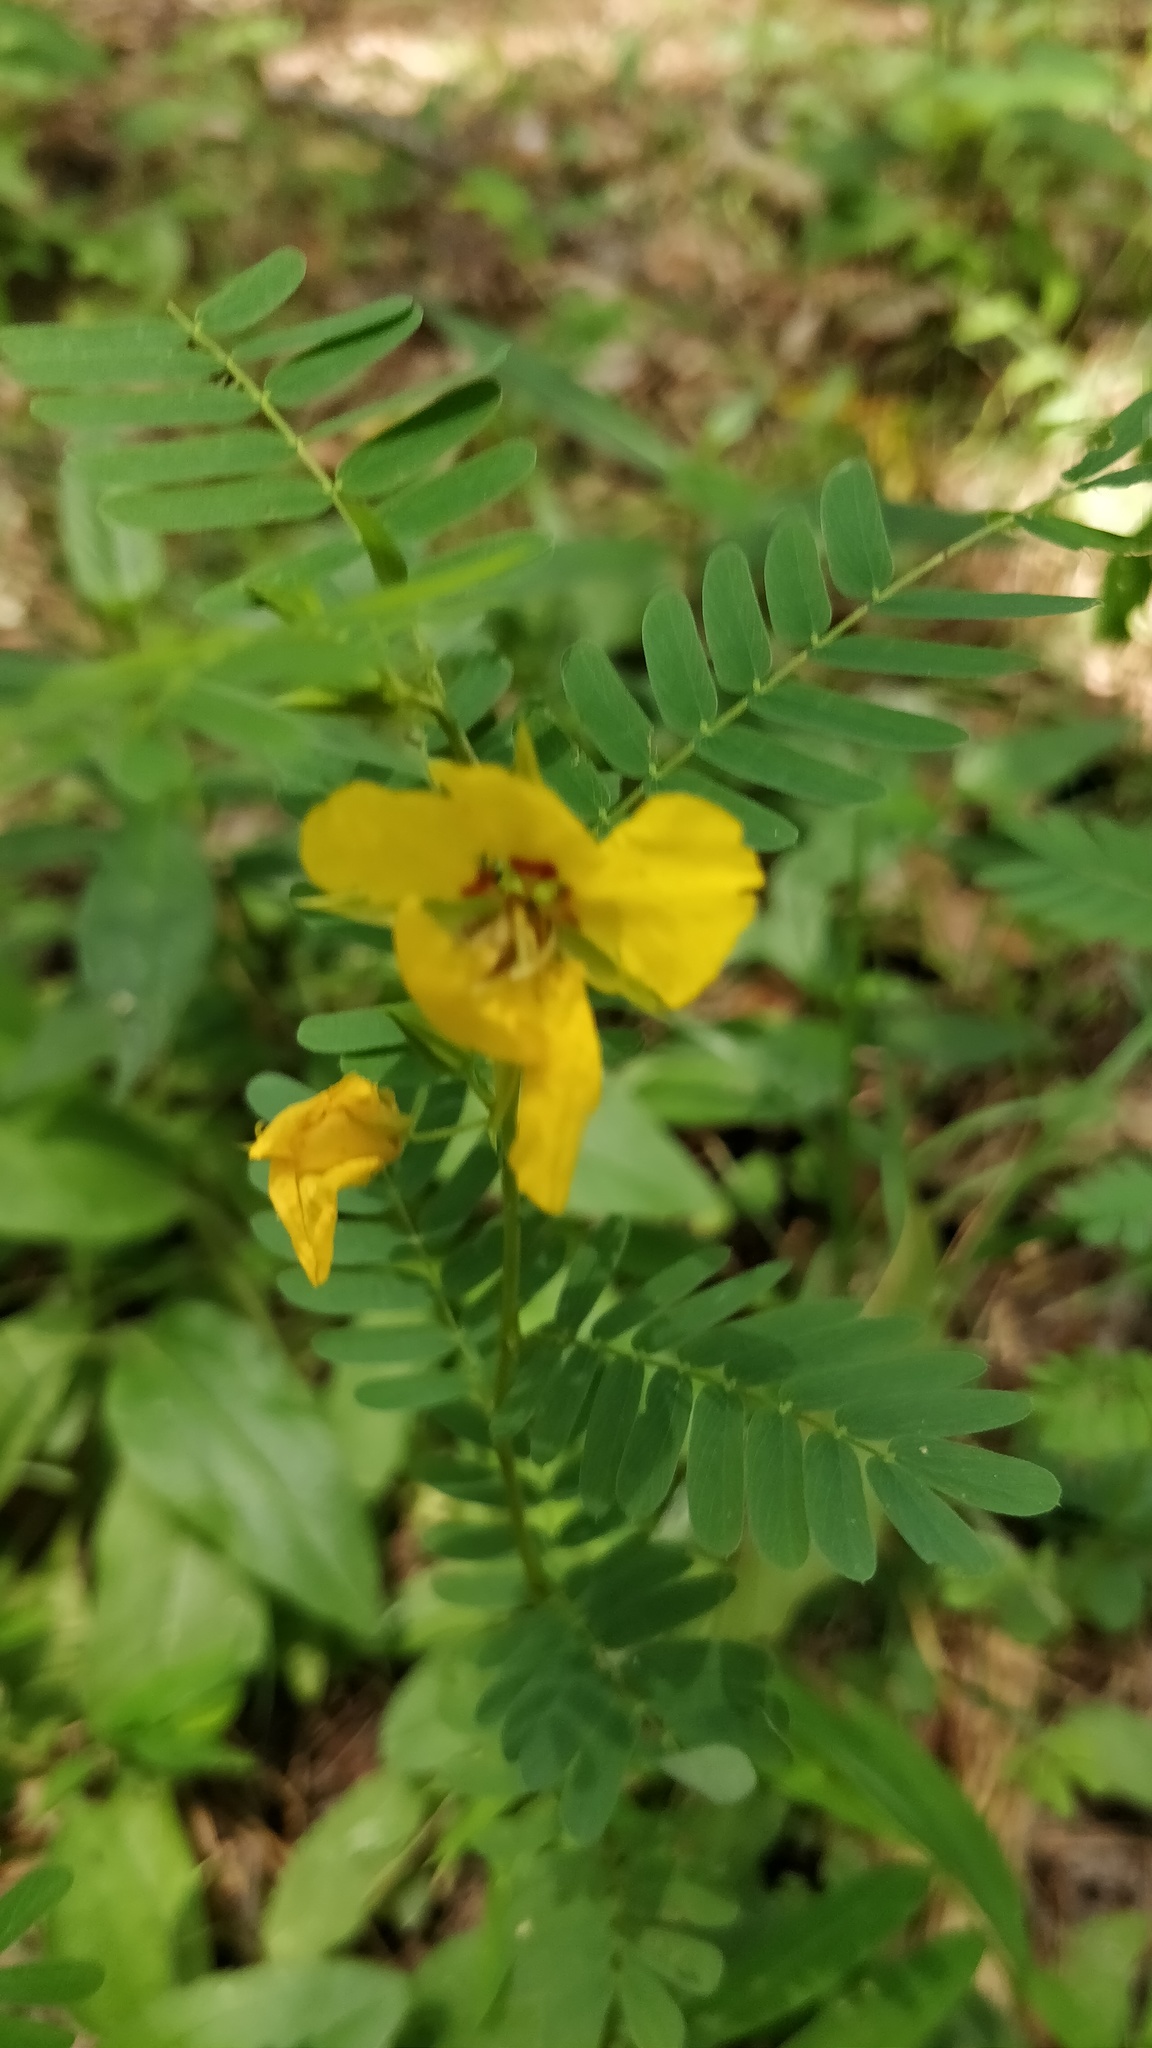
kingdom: Plantae
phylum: Tracheophyta
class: Magnoliopsida
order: Fabales
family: Fabaceae
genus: Chamaecrista
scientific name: Chamaecrista fasciculata
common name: Golden cassia
